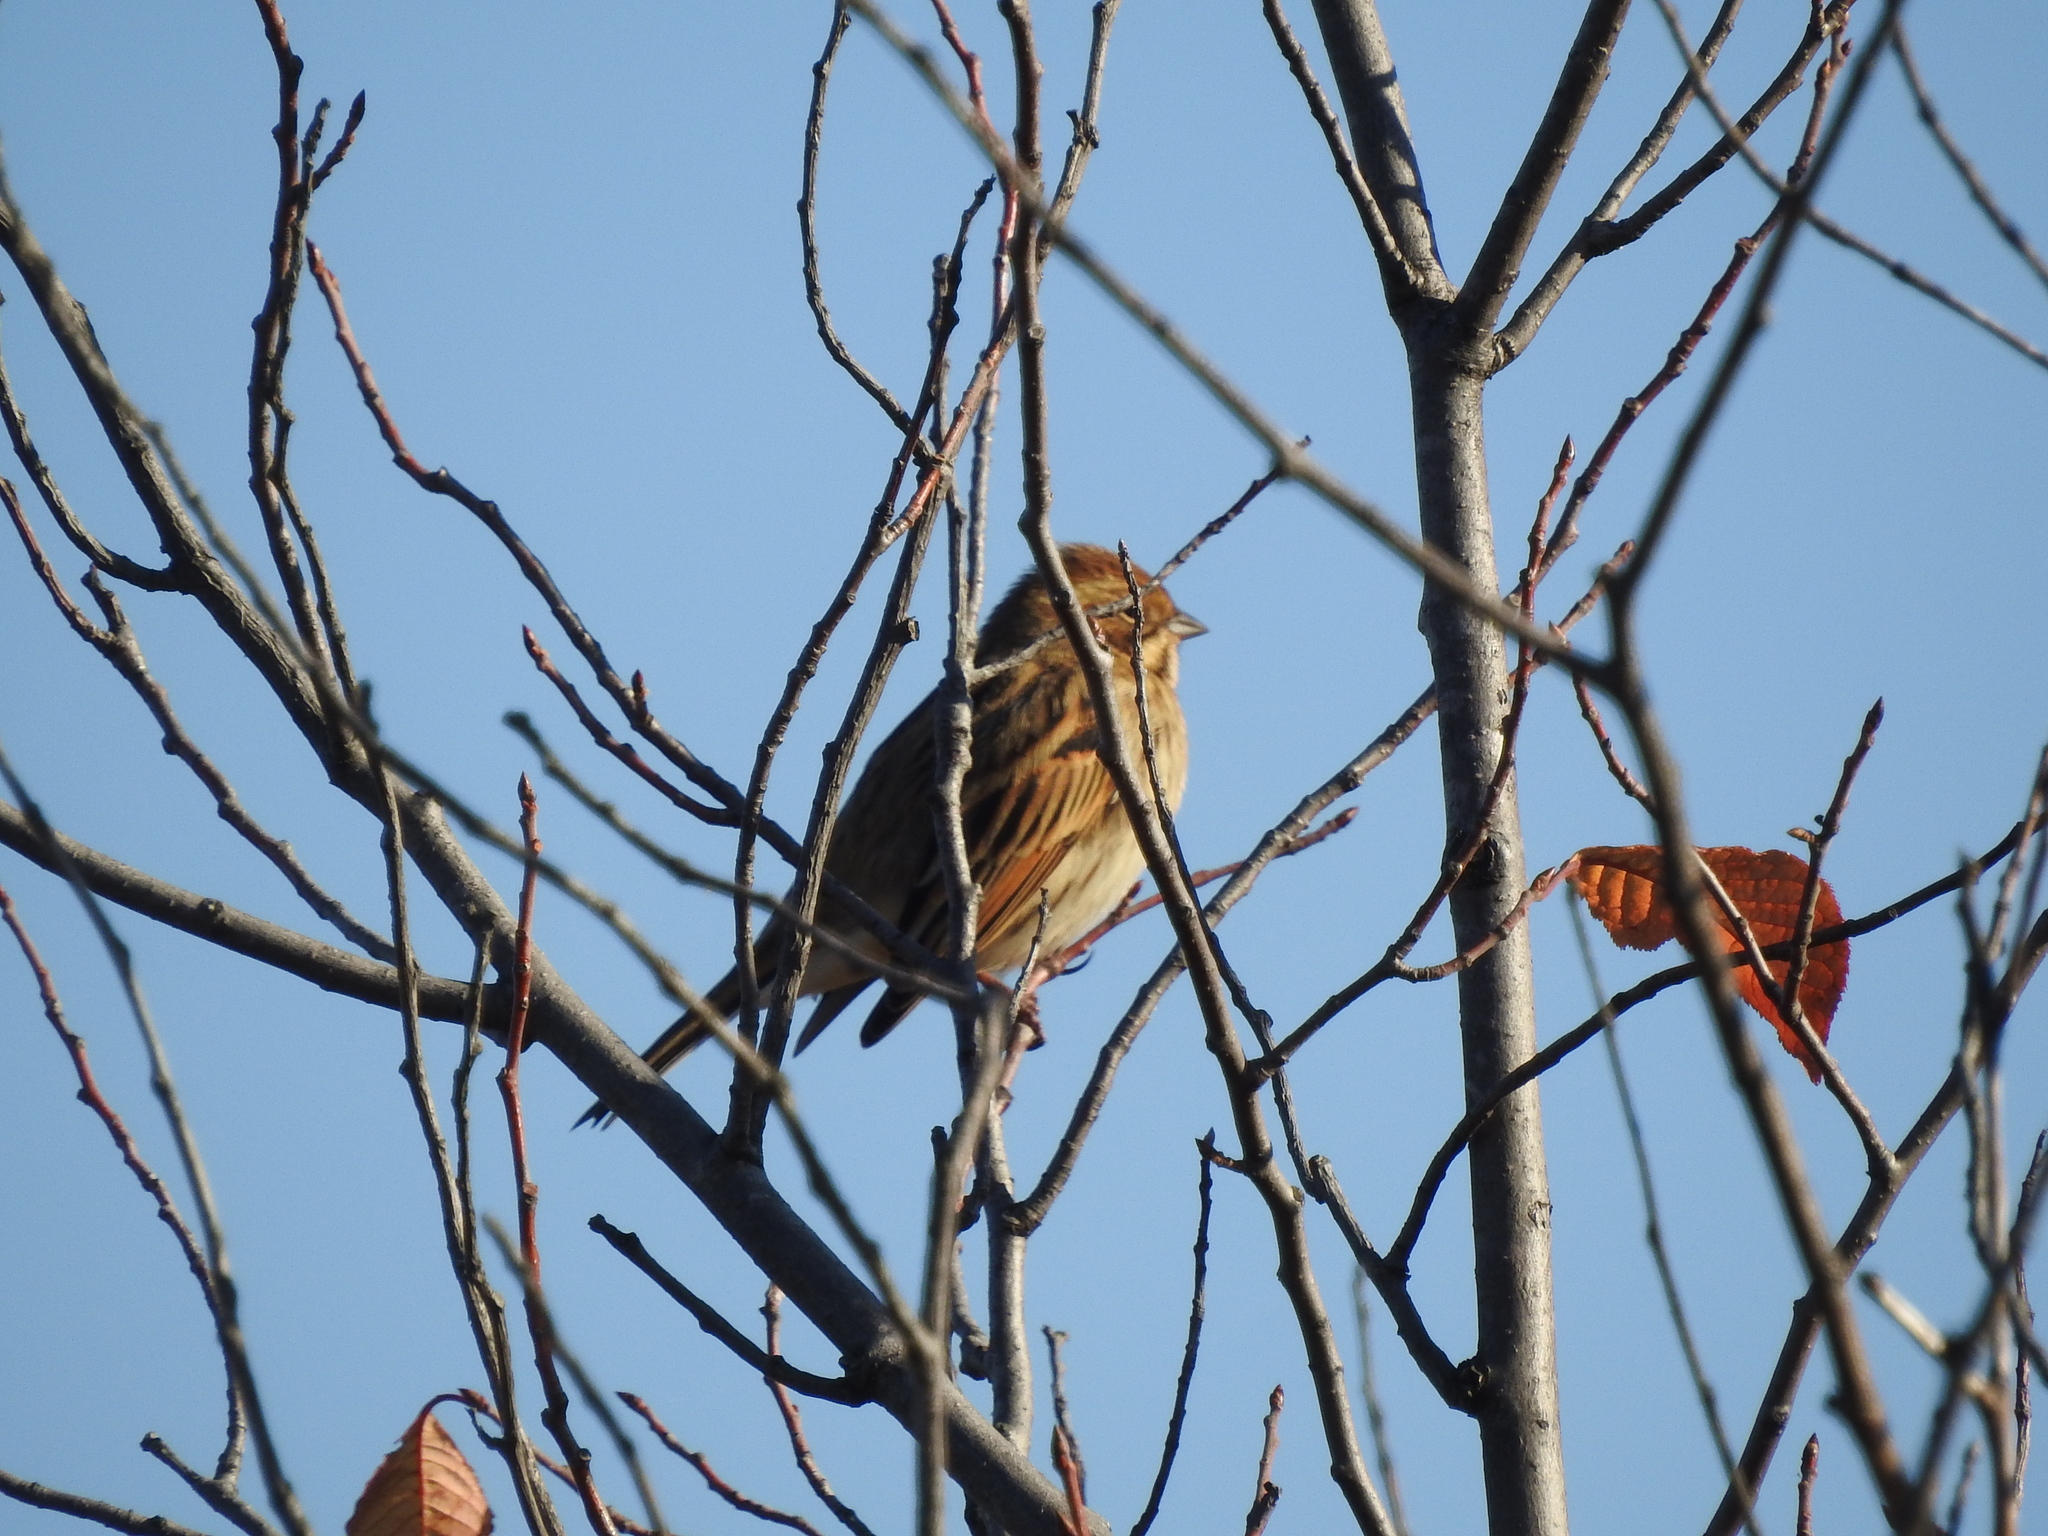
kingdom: Animalia
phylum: Chordata
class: Aves
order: Passeriformes
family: Emberizidae
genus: Emberiza
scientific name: Emberiza schoeniclus
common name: Reed bunting
